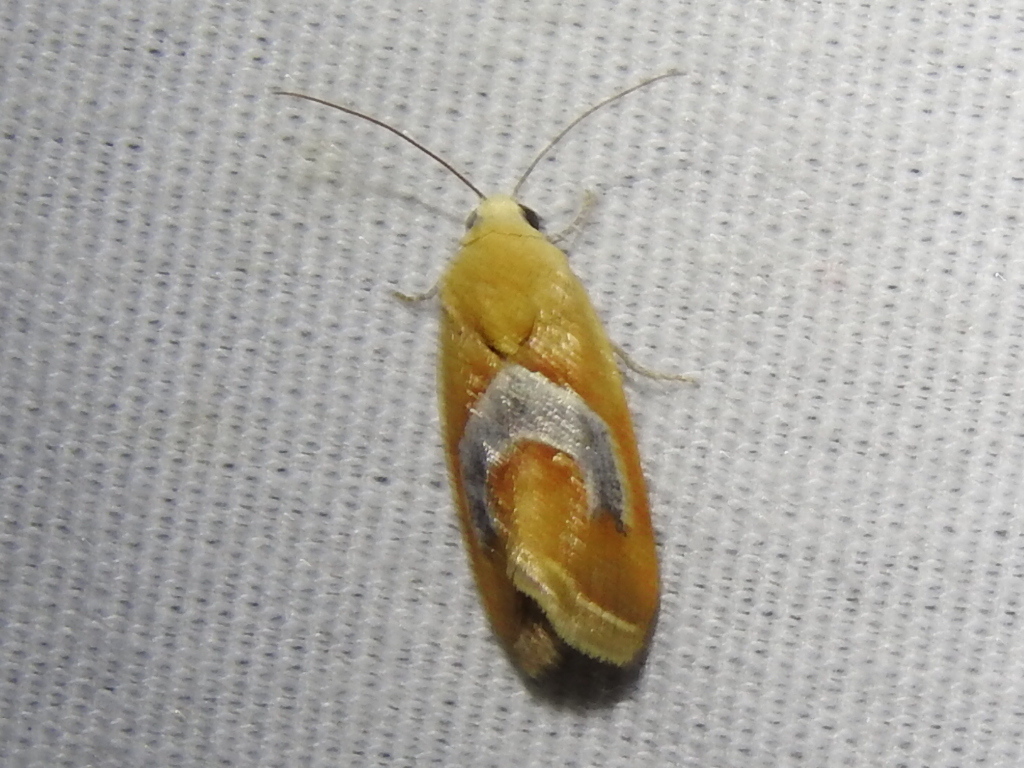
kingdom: Animalia
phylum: Arthropoda
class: Insecta
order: Lepidoptera
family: Noctuidae
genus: Ponometia
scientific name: Ponometia venustula
